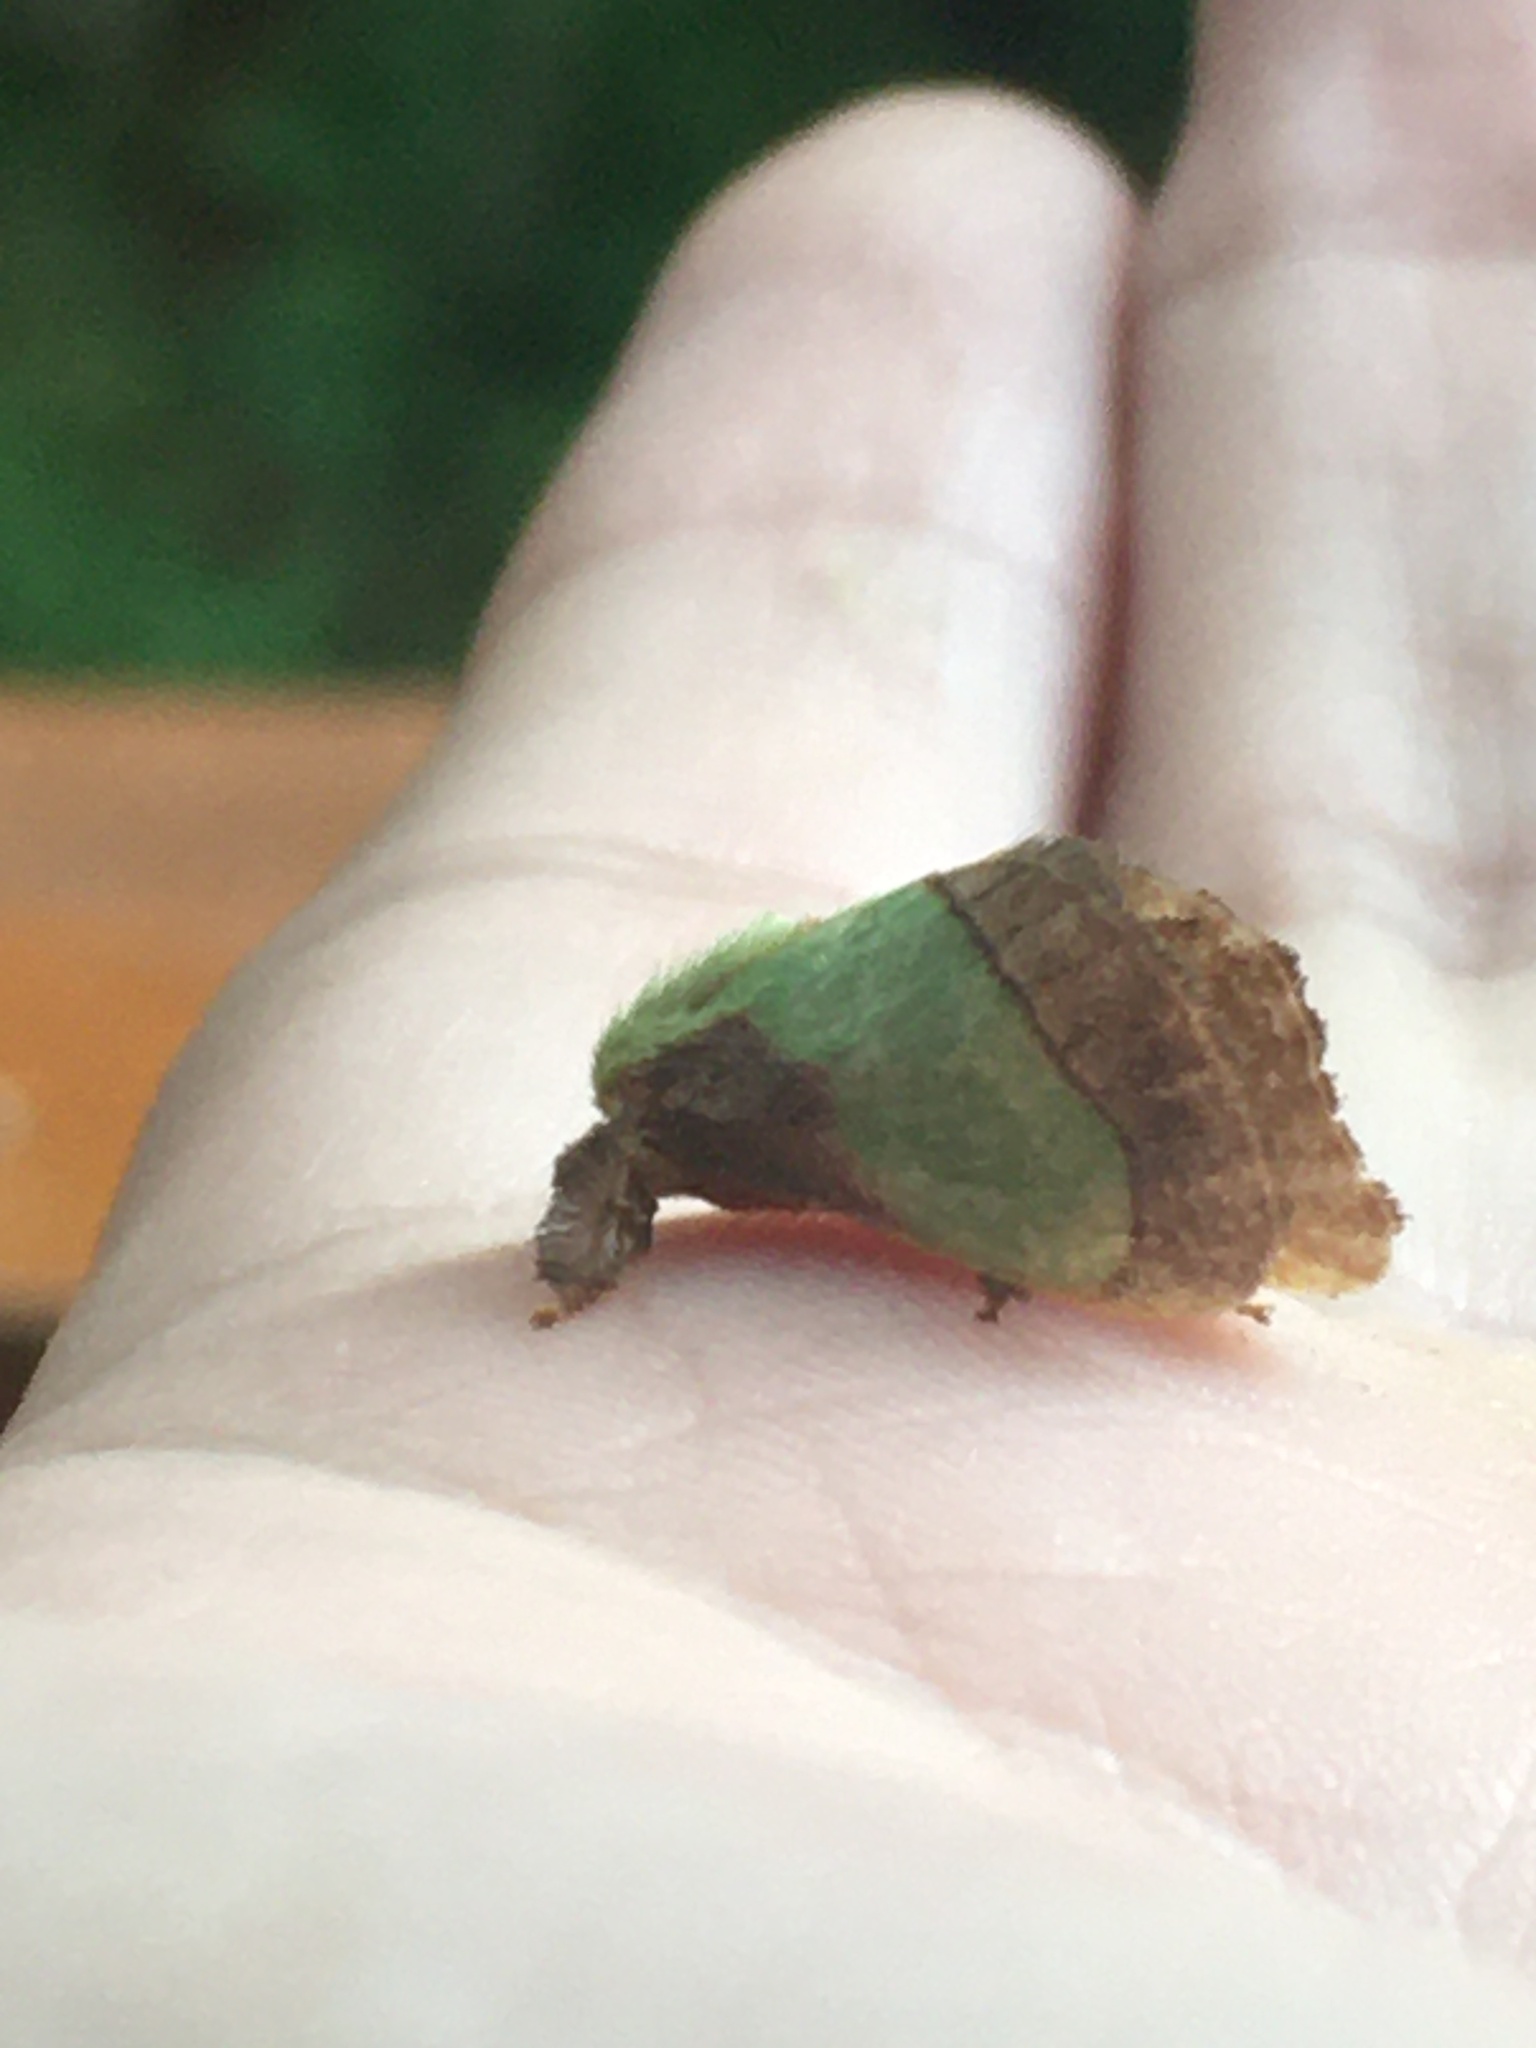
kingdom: Animalia
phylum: Arthropoda
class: Insecta
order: Lepidoptera
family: Limacodidae
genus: Parasa
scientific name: Parasa chloris
